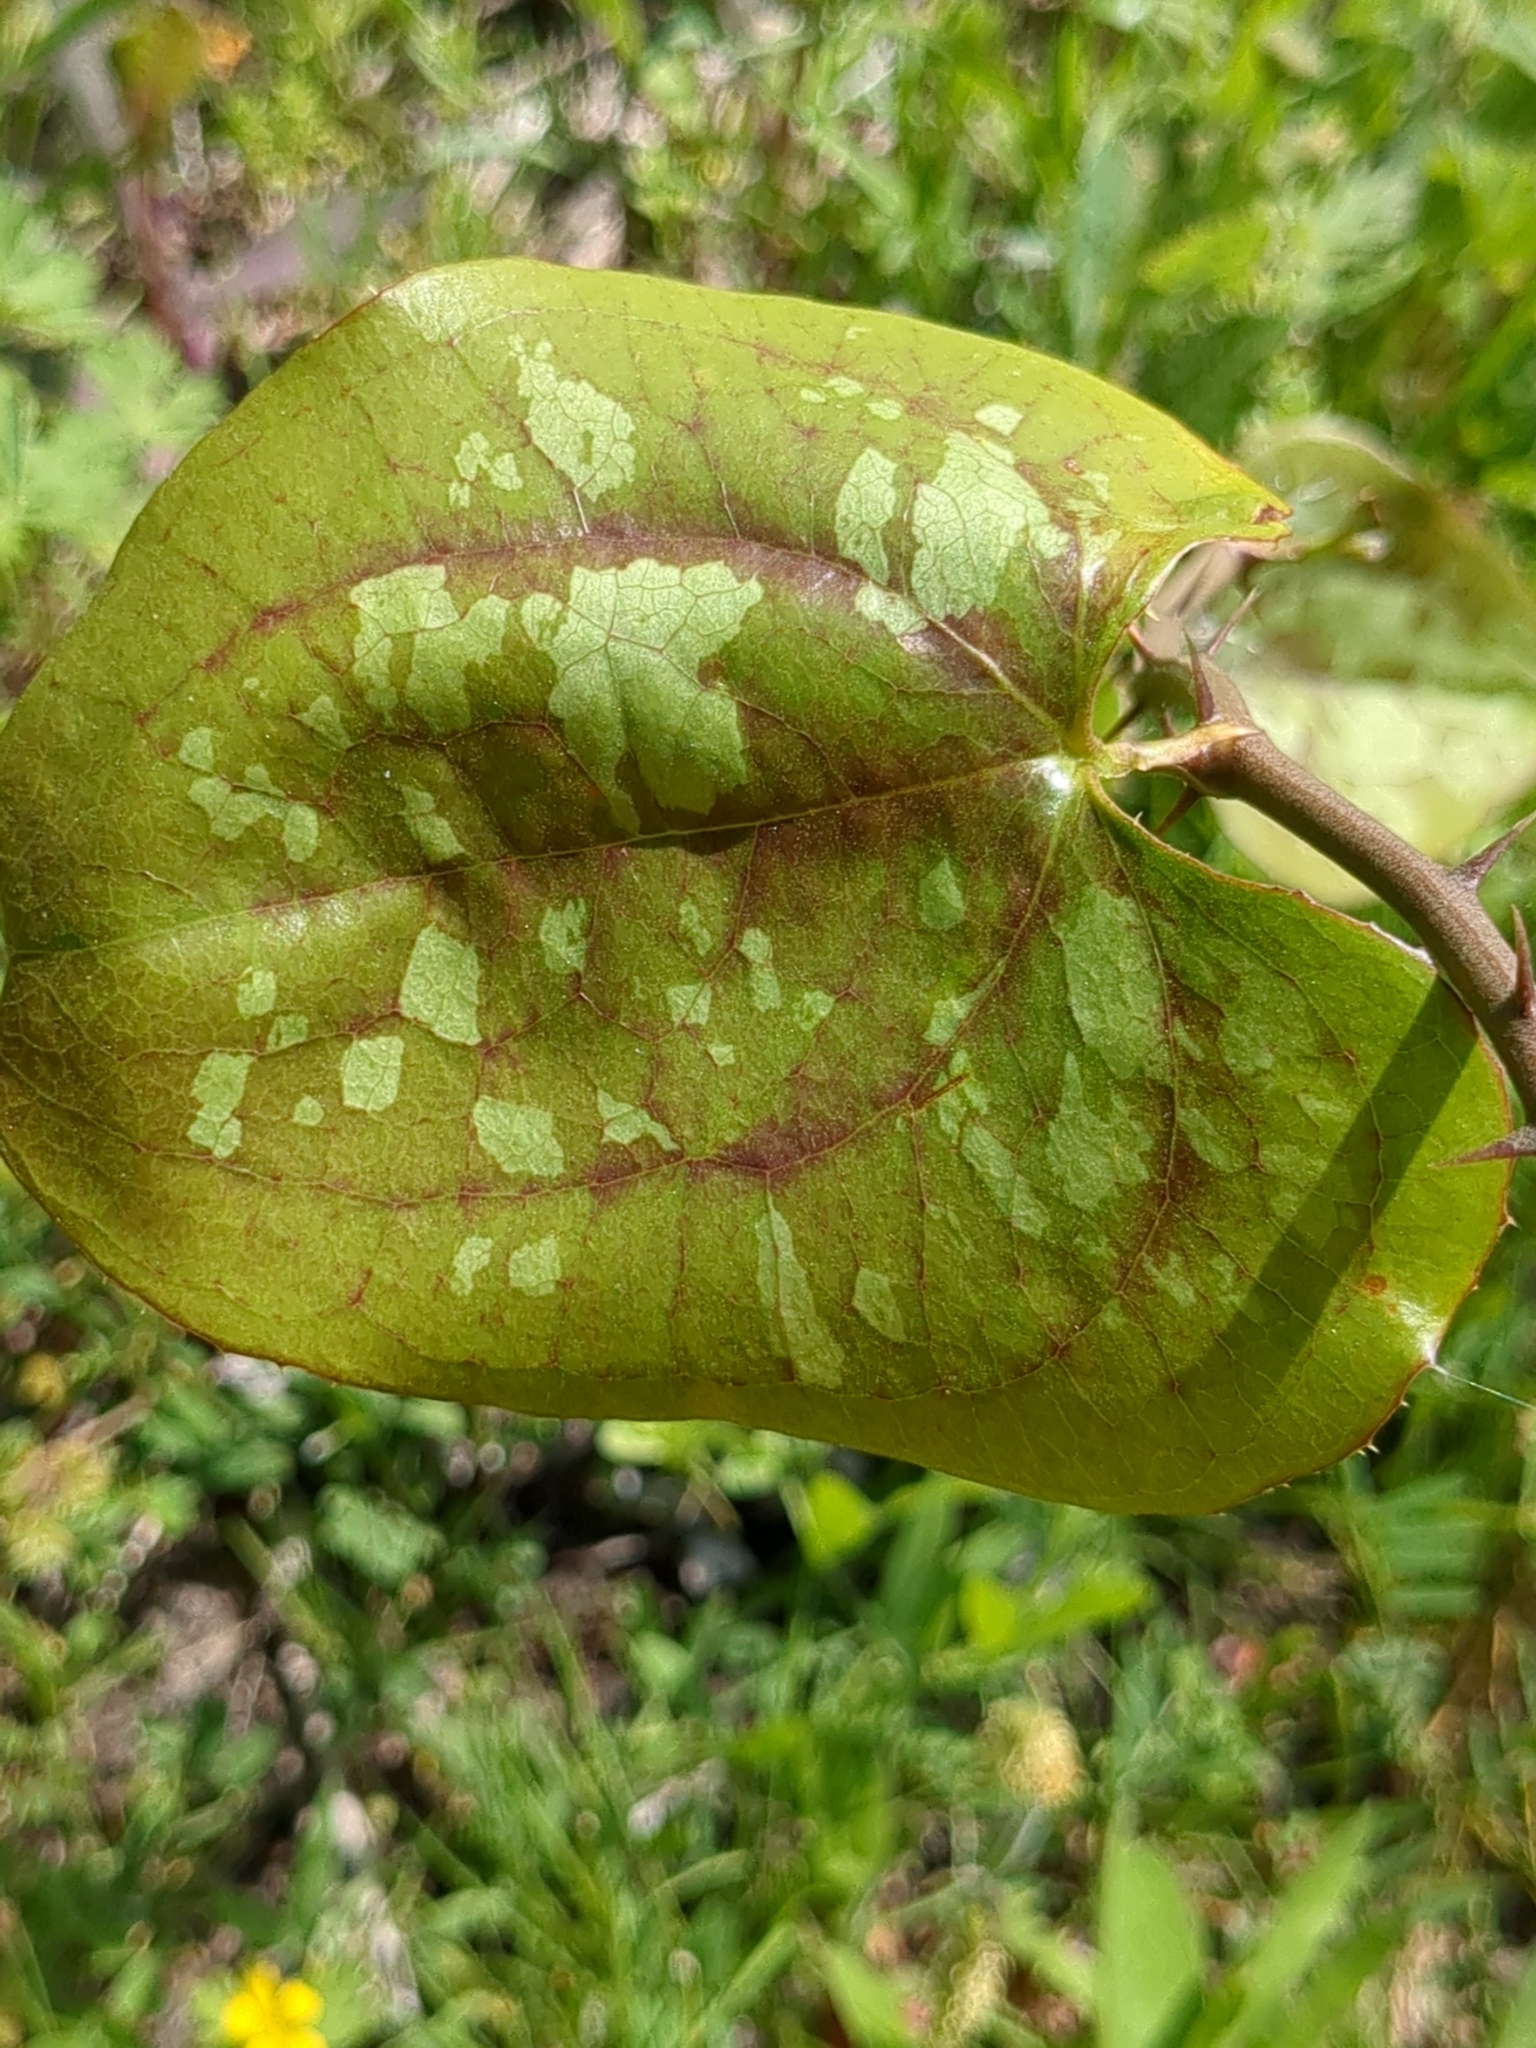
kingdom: Plantae
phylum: Tracheophyta
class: Liliopsida
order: Liliales
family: Smilacaceae
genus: Smilax
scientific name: Smilax bona-nox
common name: Catbrier
